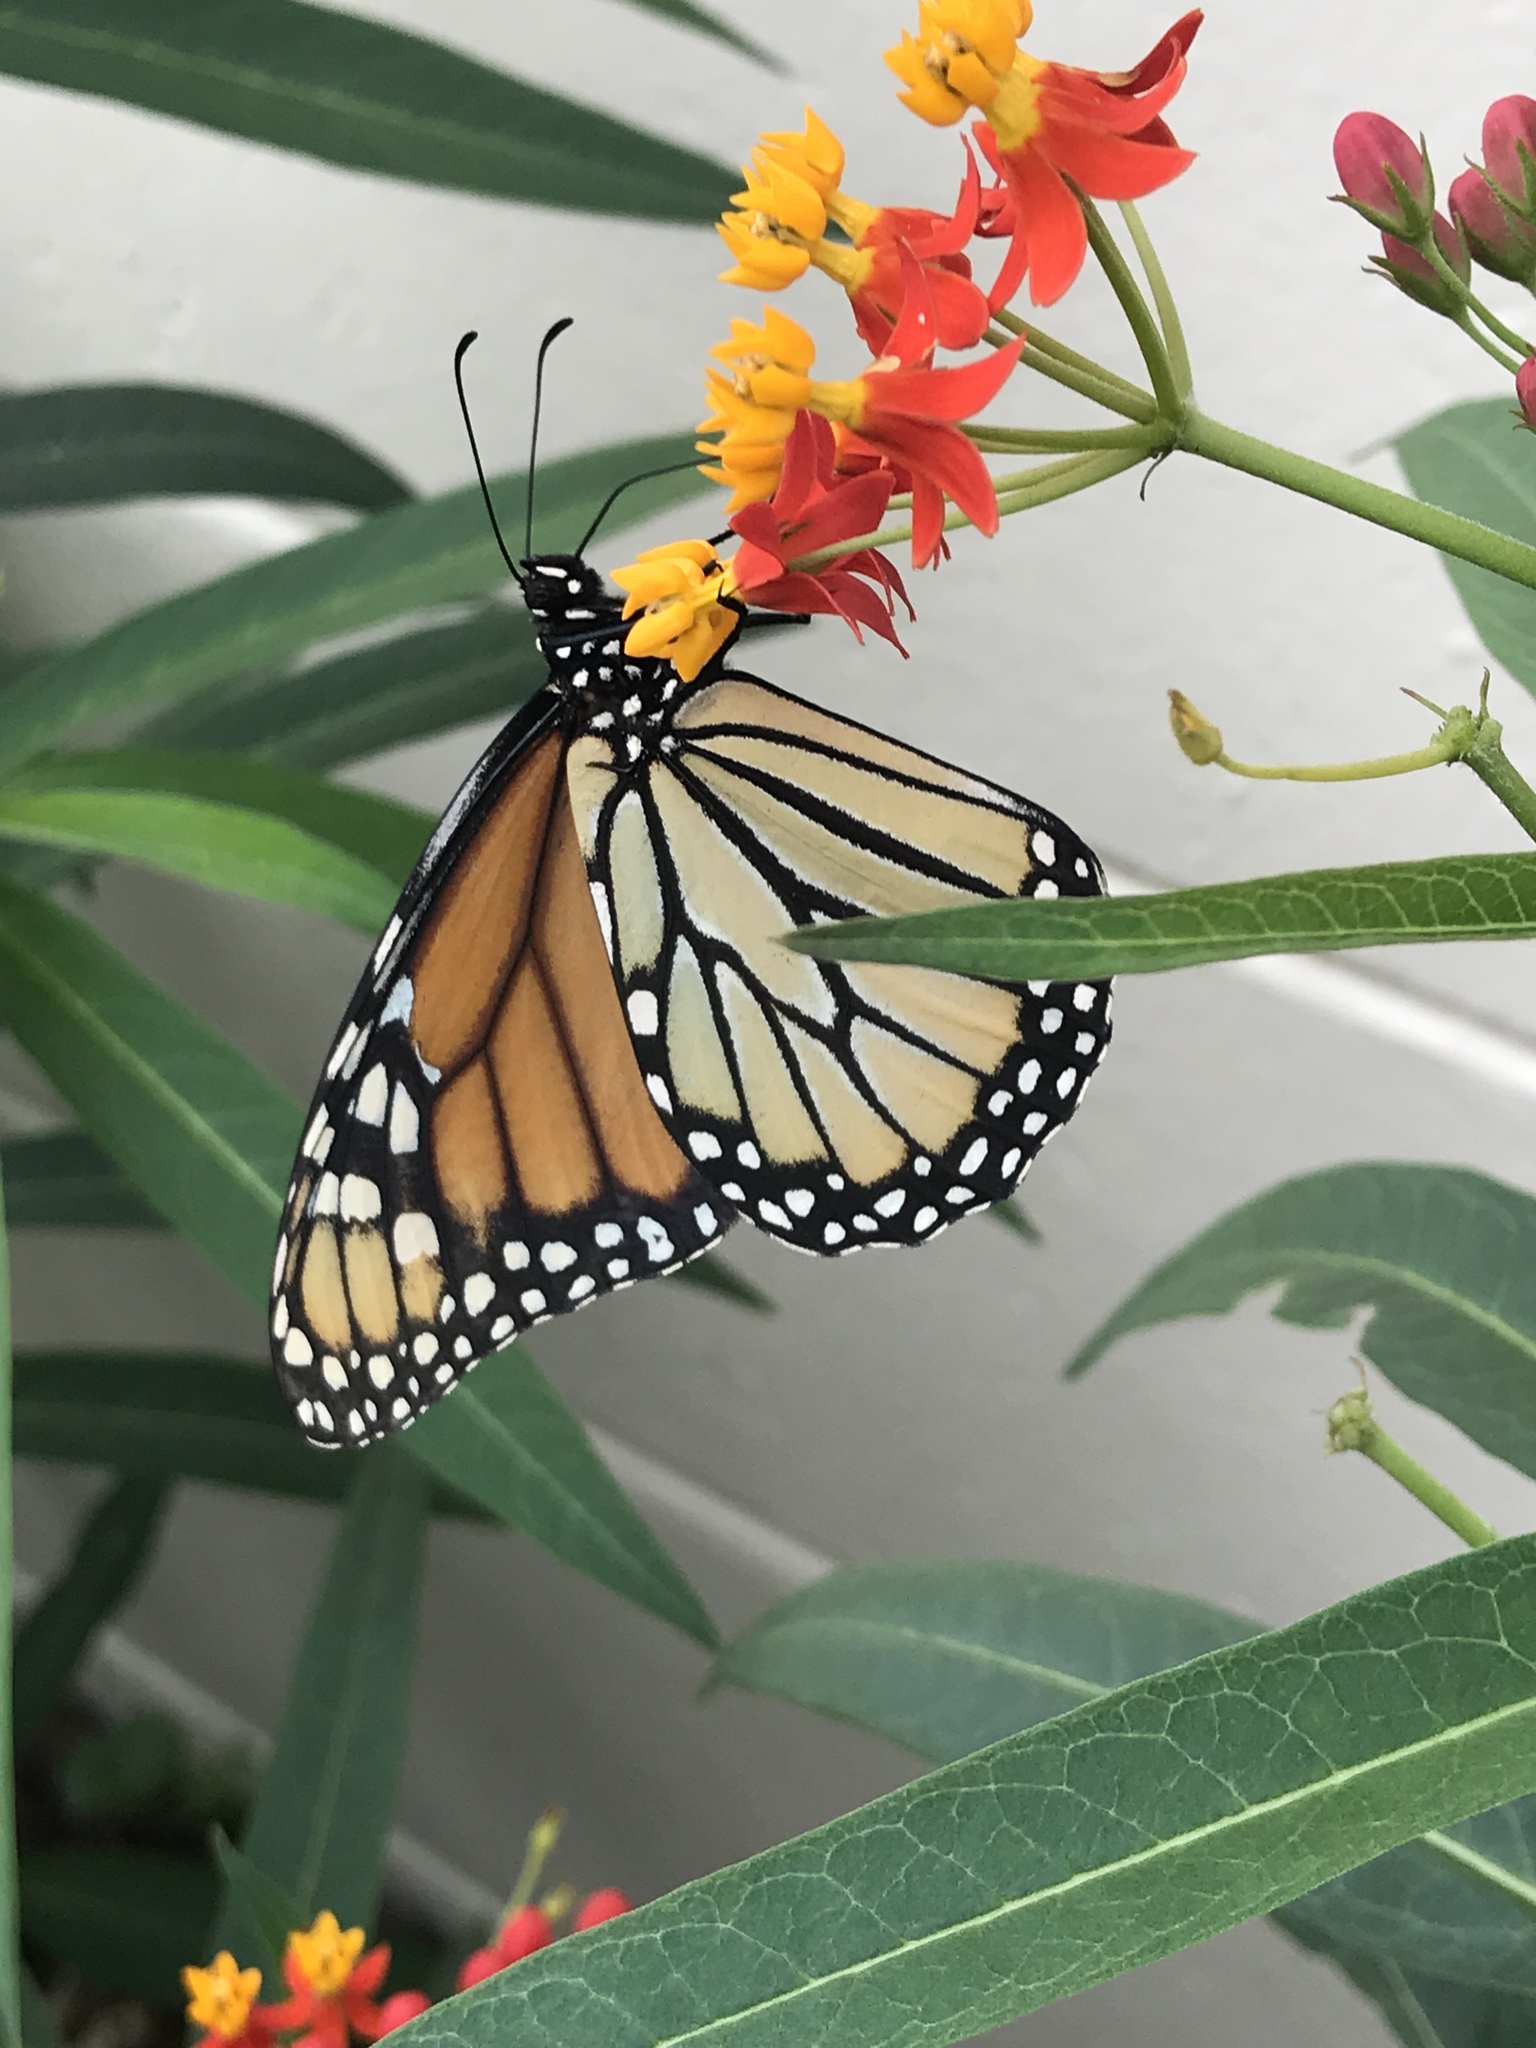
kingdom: Animalia
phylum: Arthropoda
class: Insecta
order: Lepidoptera
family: Nymphalidae
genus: Danaus
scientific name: Danaus plexippus
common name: Monarch
